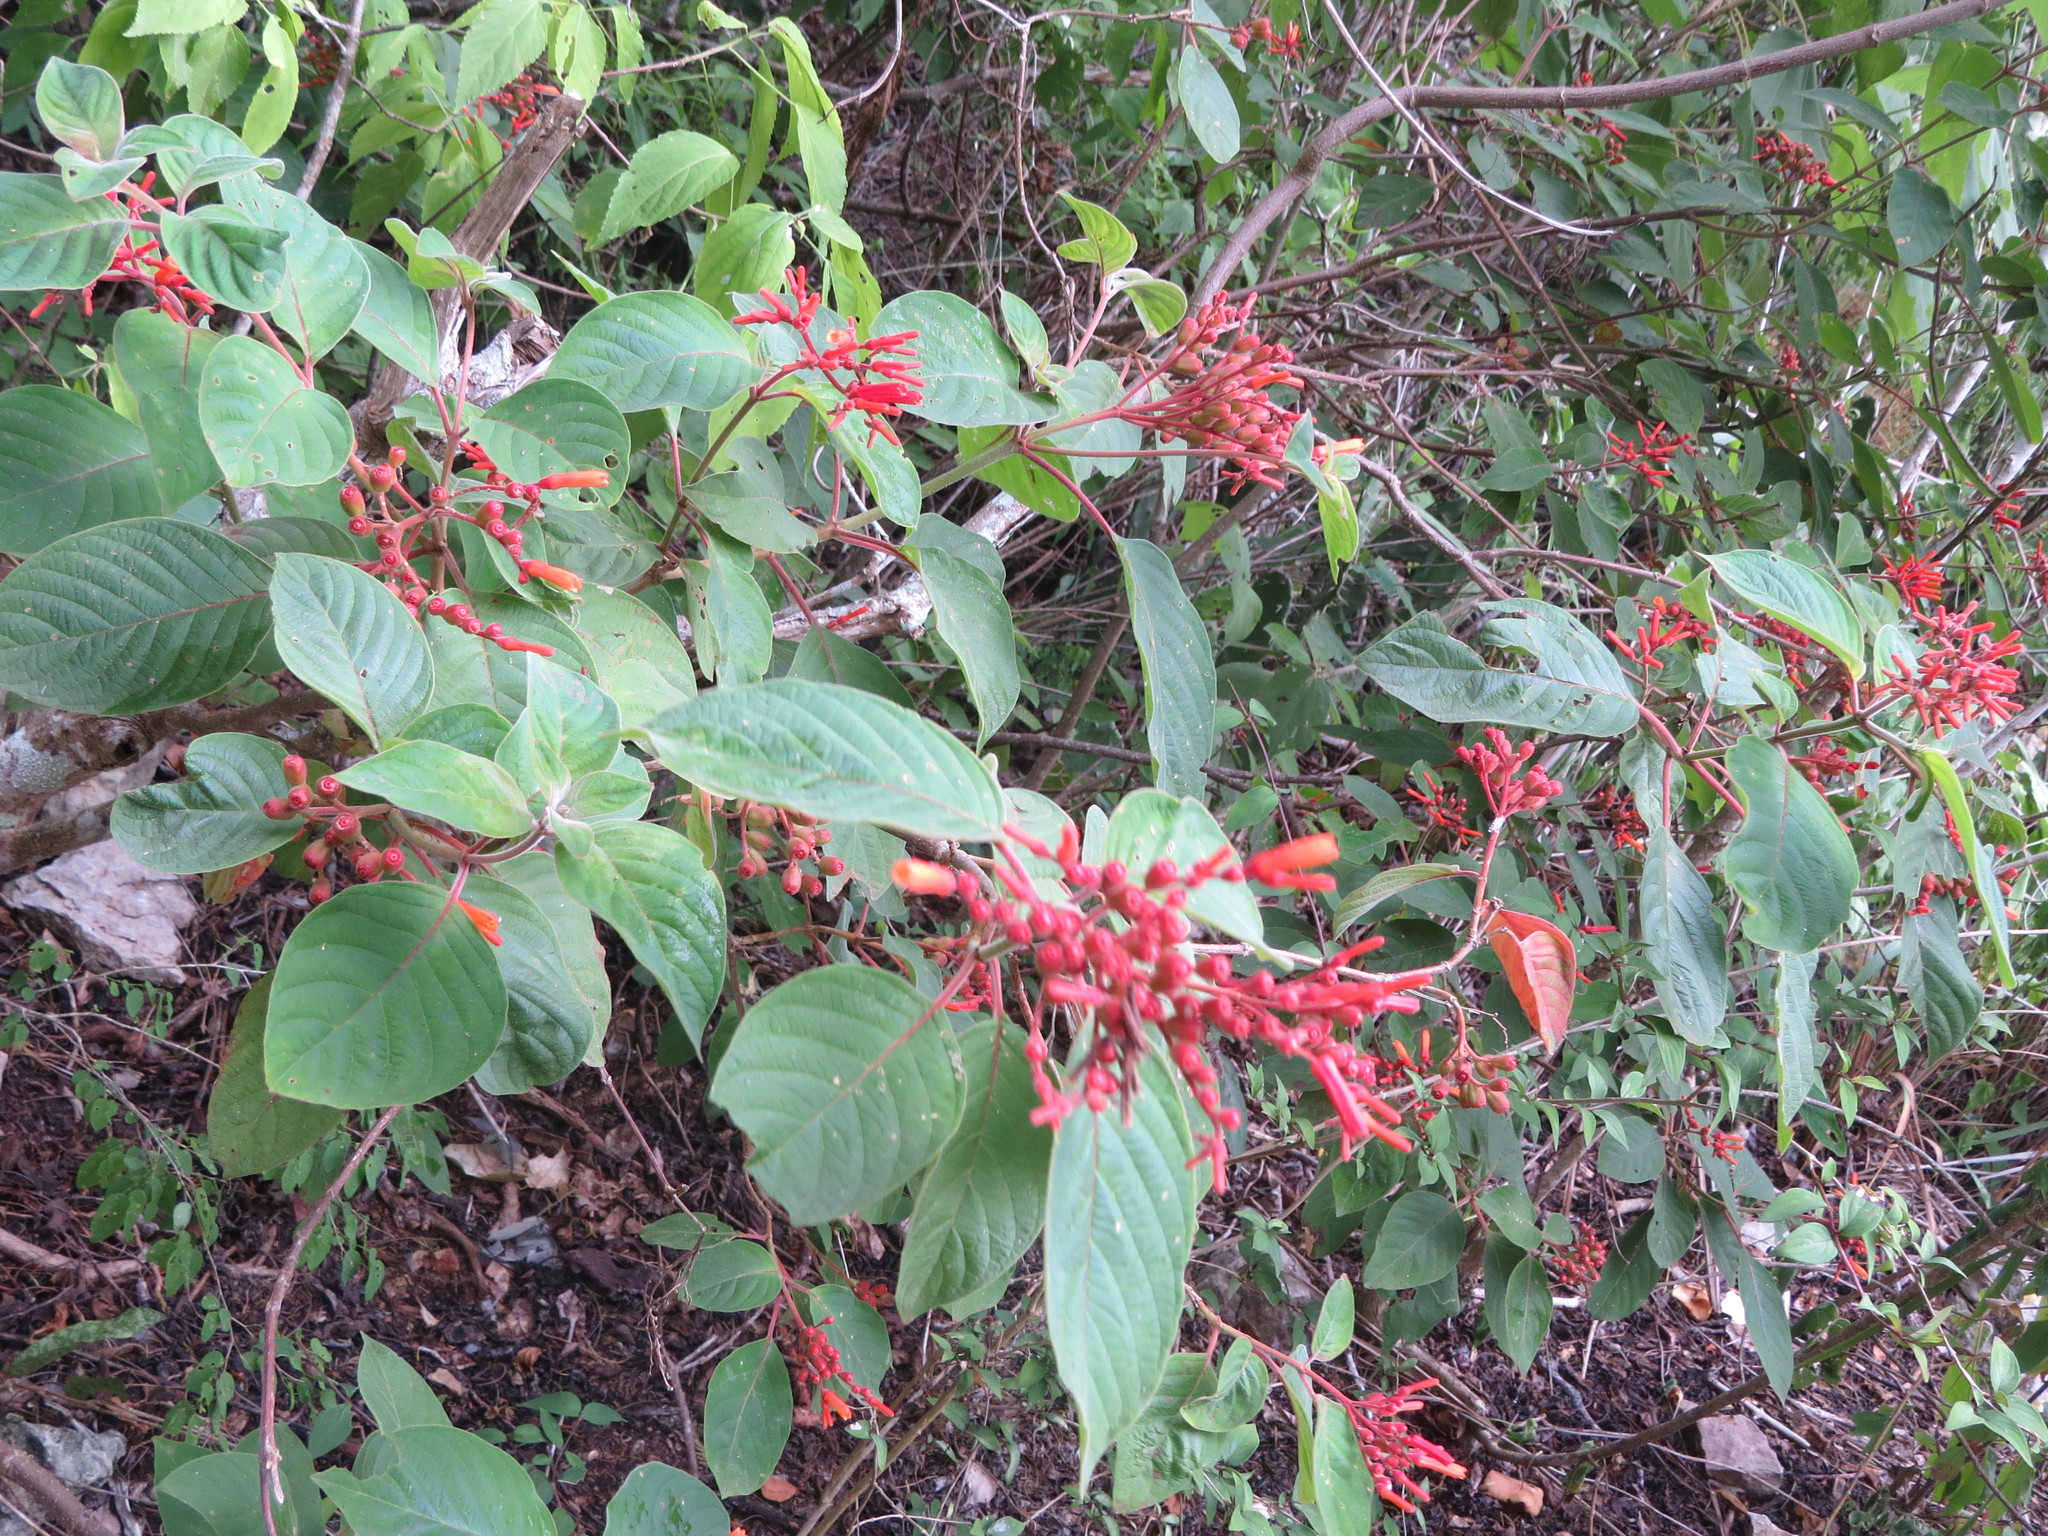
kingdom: Plantae
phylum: Tracheophyta
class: Magnoliopsida
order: Gentianales
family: Rubiaceae
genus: Hamelia
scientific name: Hamelia patens
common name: Redhead
